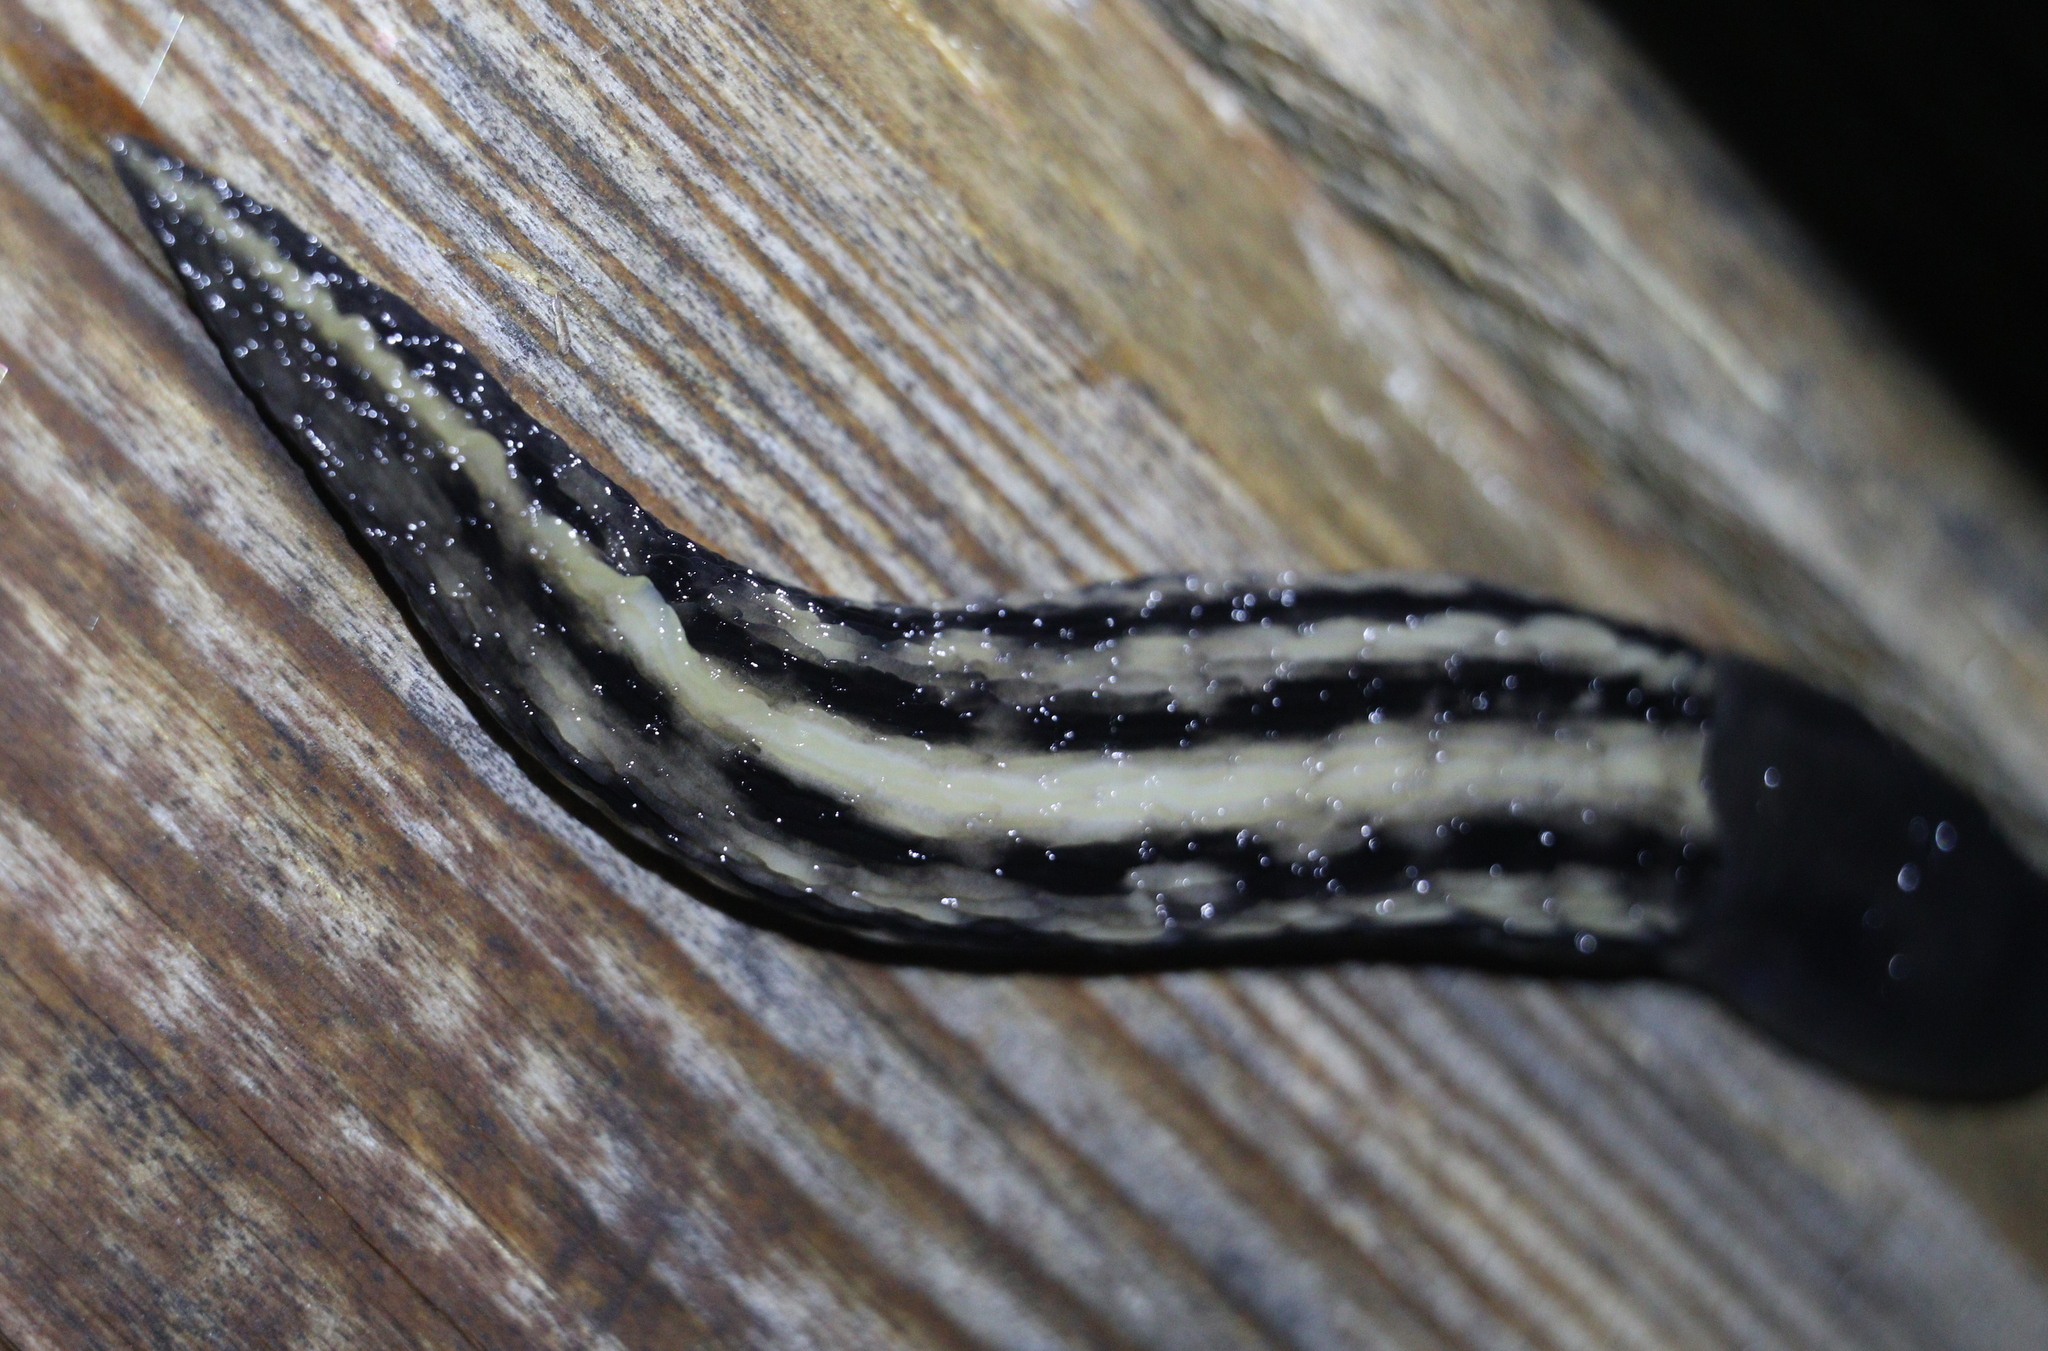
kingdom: Animalia
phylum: Mollusca
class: Gastropoda
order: Stylommatophora
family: Limacidae
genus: Limax
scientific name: Limax cinereoniger
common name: Ash-black slug
